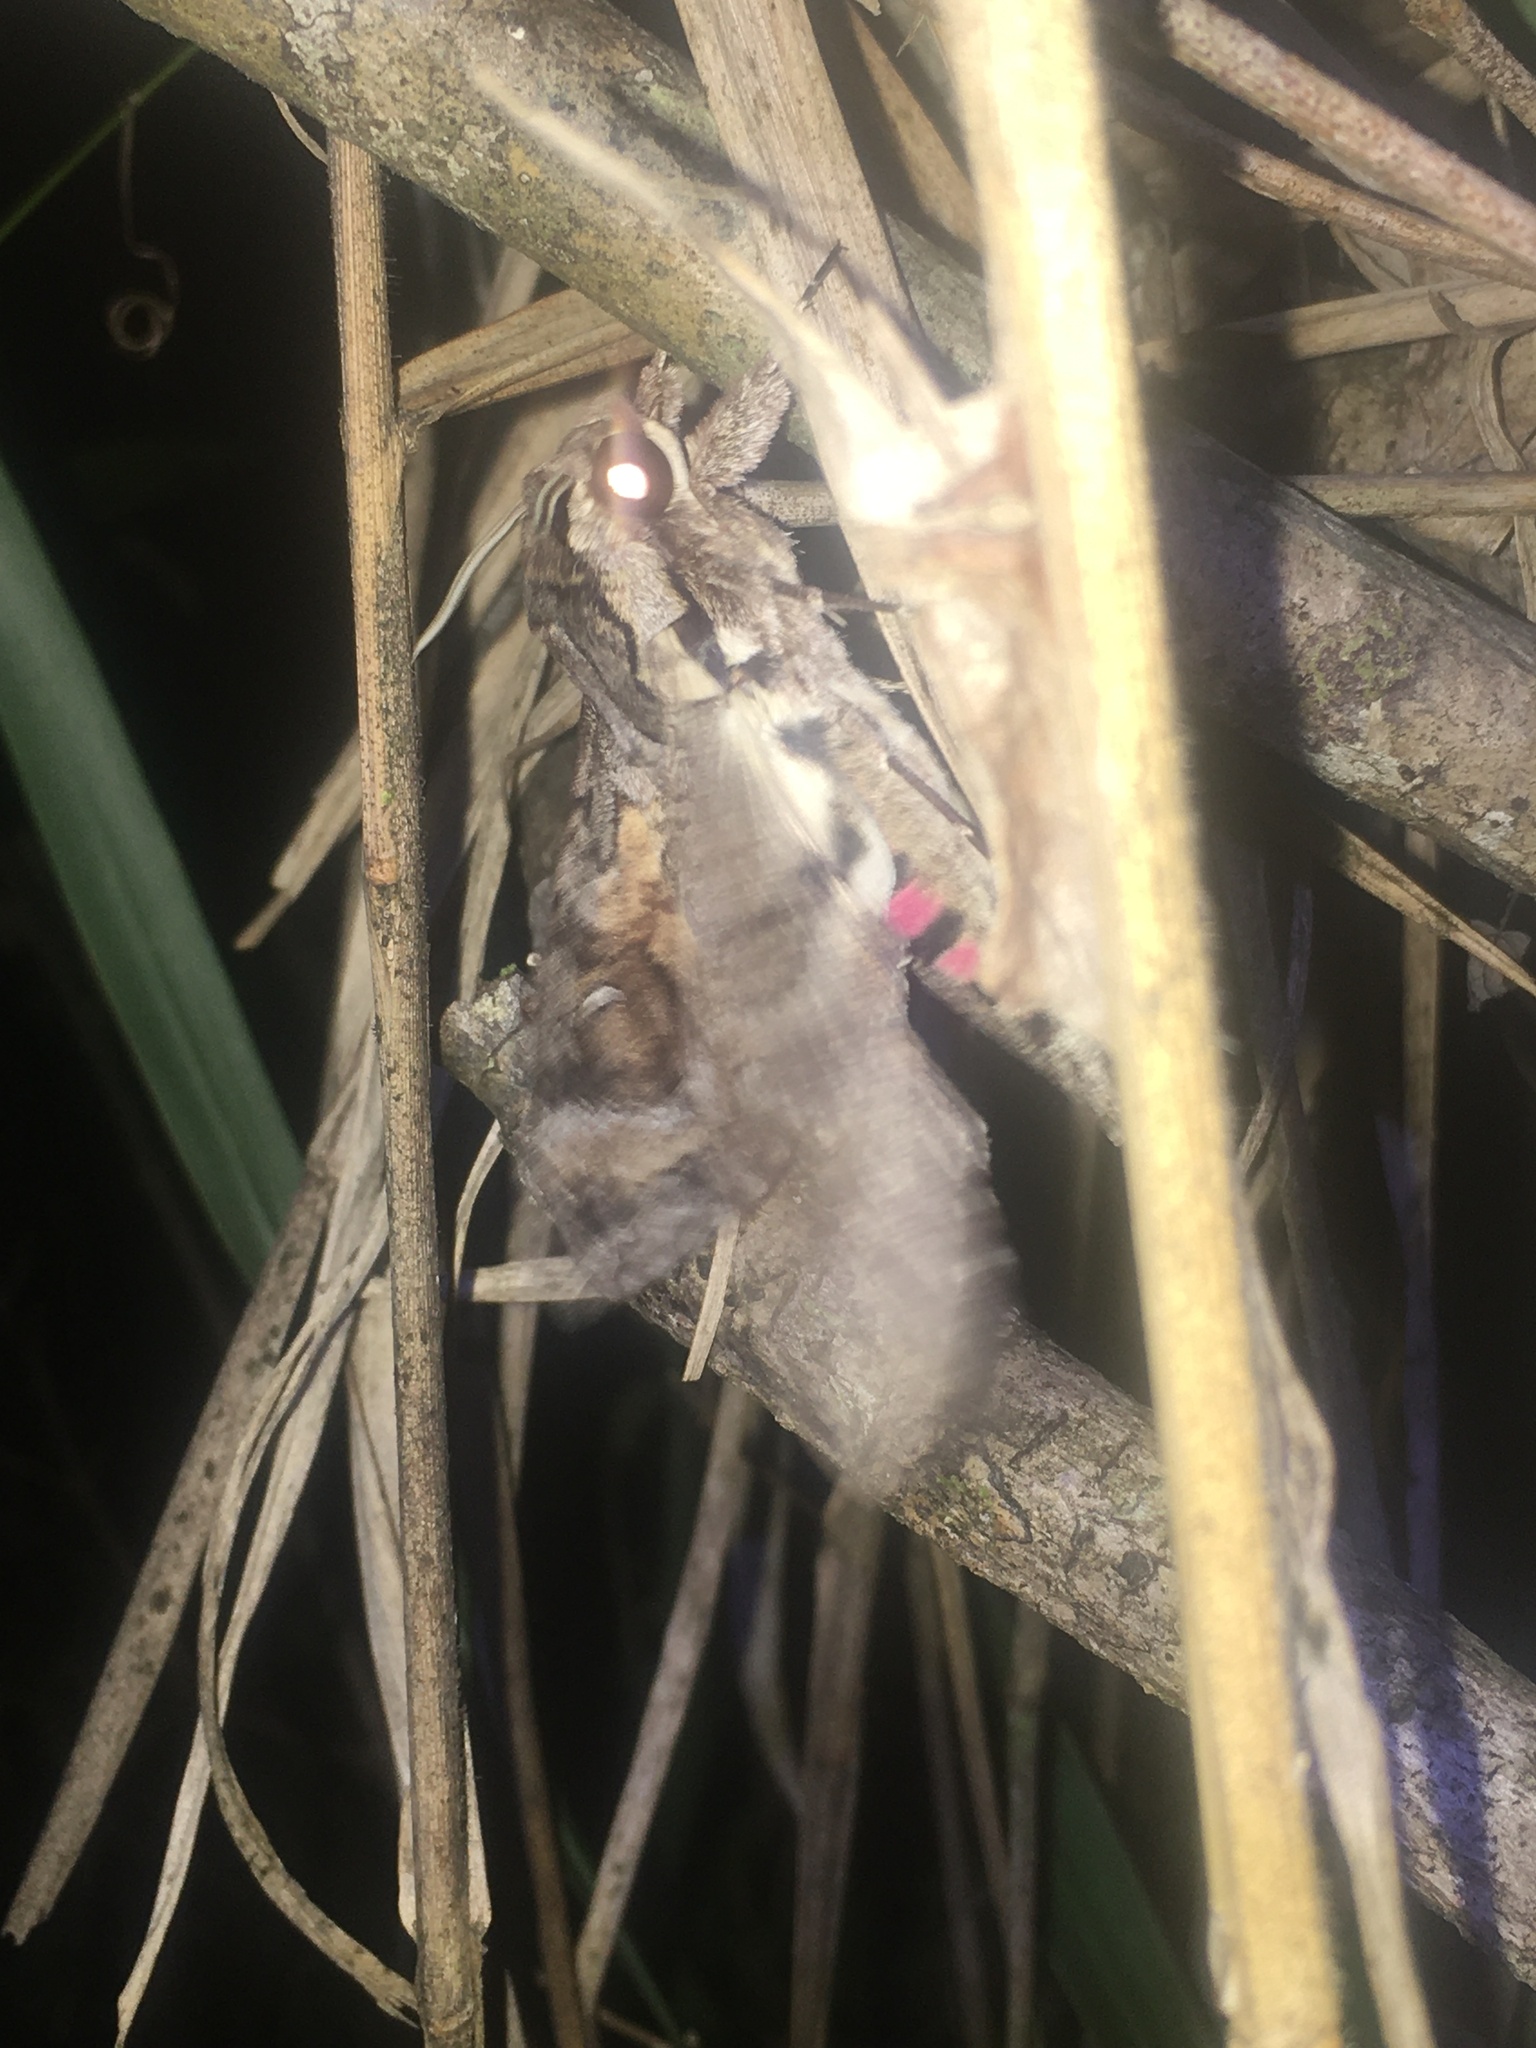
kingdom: Animalia
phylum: Arthropoda
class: Insecta
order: Lepidoptera
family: Sphingidae
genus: Agrius
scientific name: Agrius cingulata
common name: Pink-spotted hawkmoth
